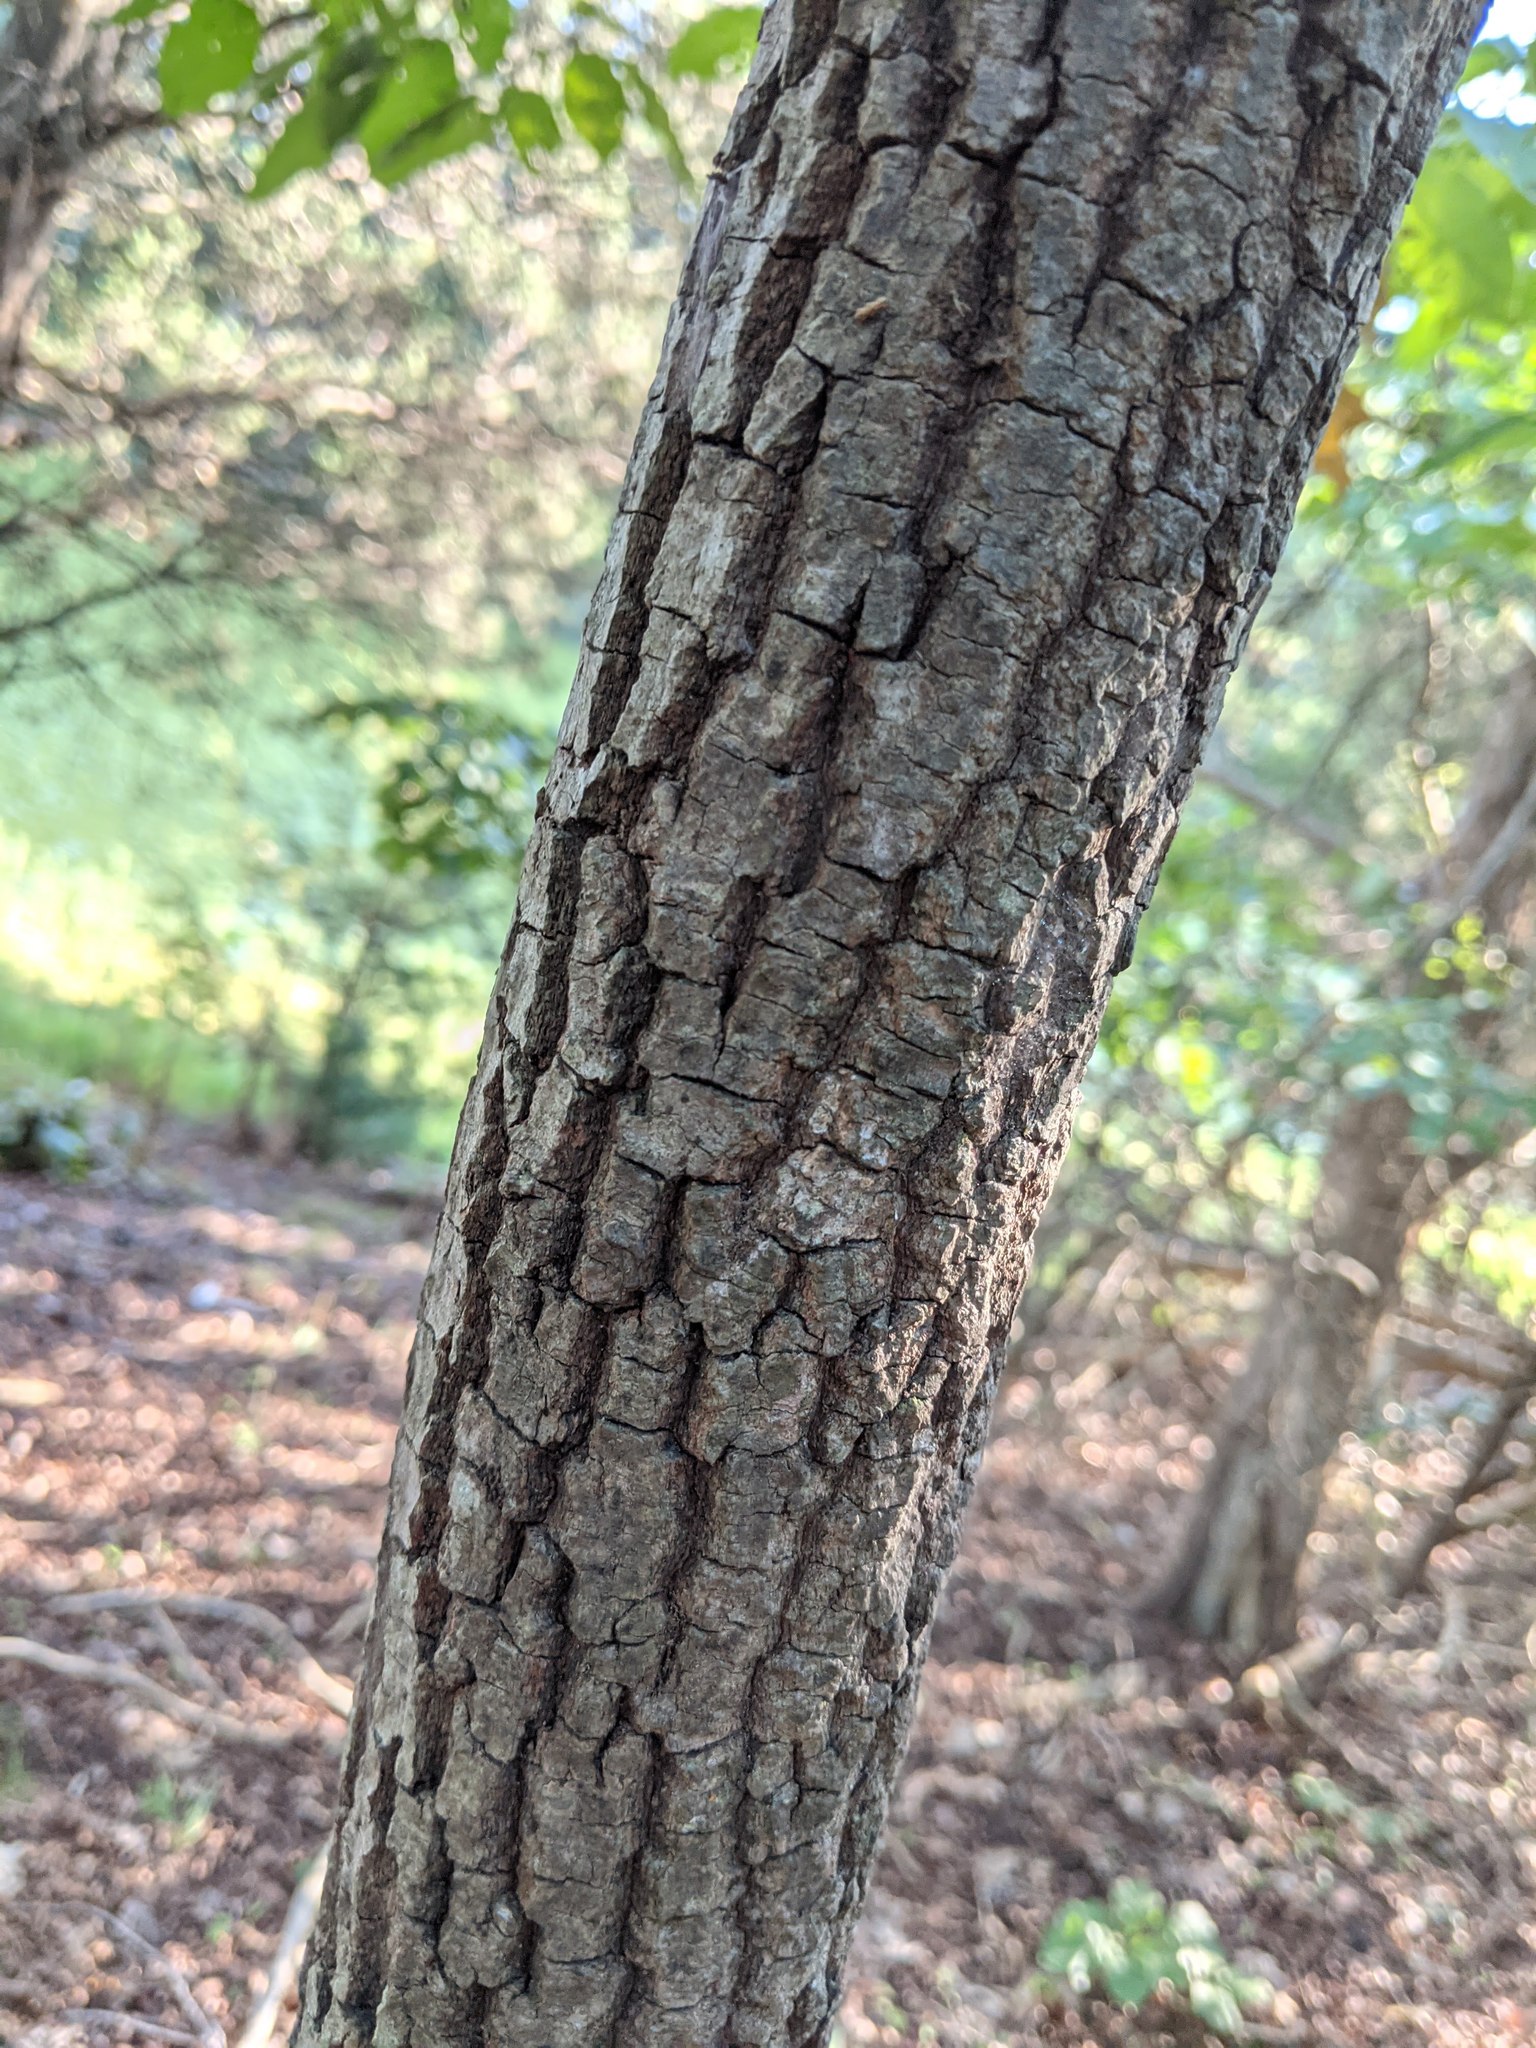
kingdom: Plantae
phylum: Tracheophyta
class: Magnoliopsida
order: Ericales
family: Ebenaceae
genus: Diospyros
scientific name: Diospyros virginiana
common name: Persimmon
